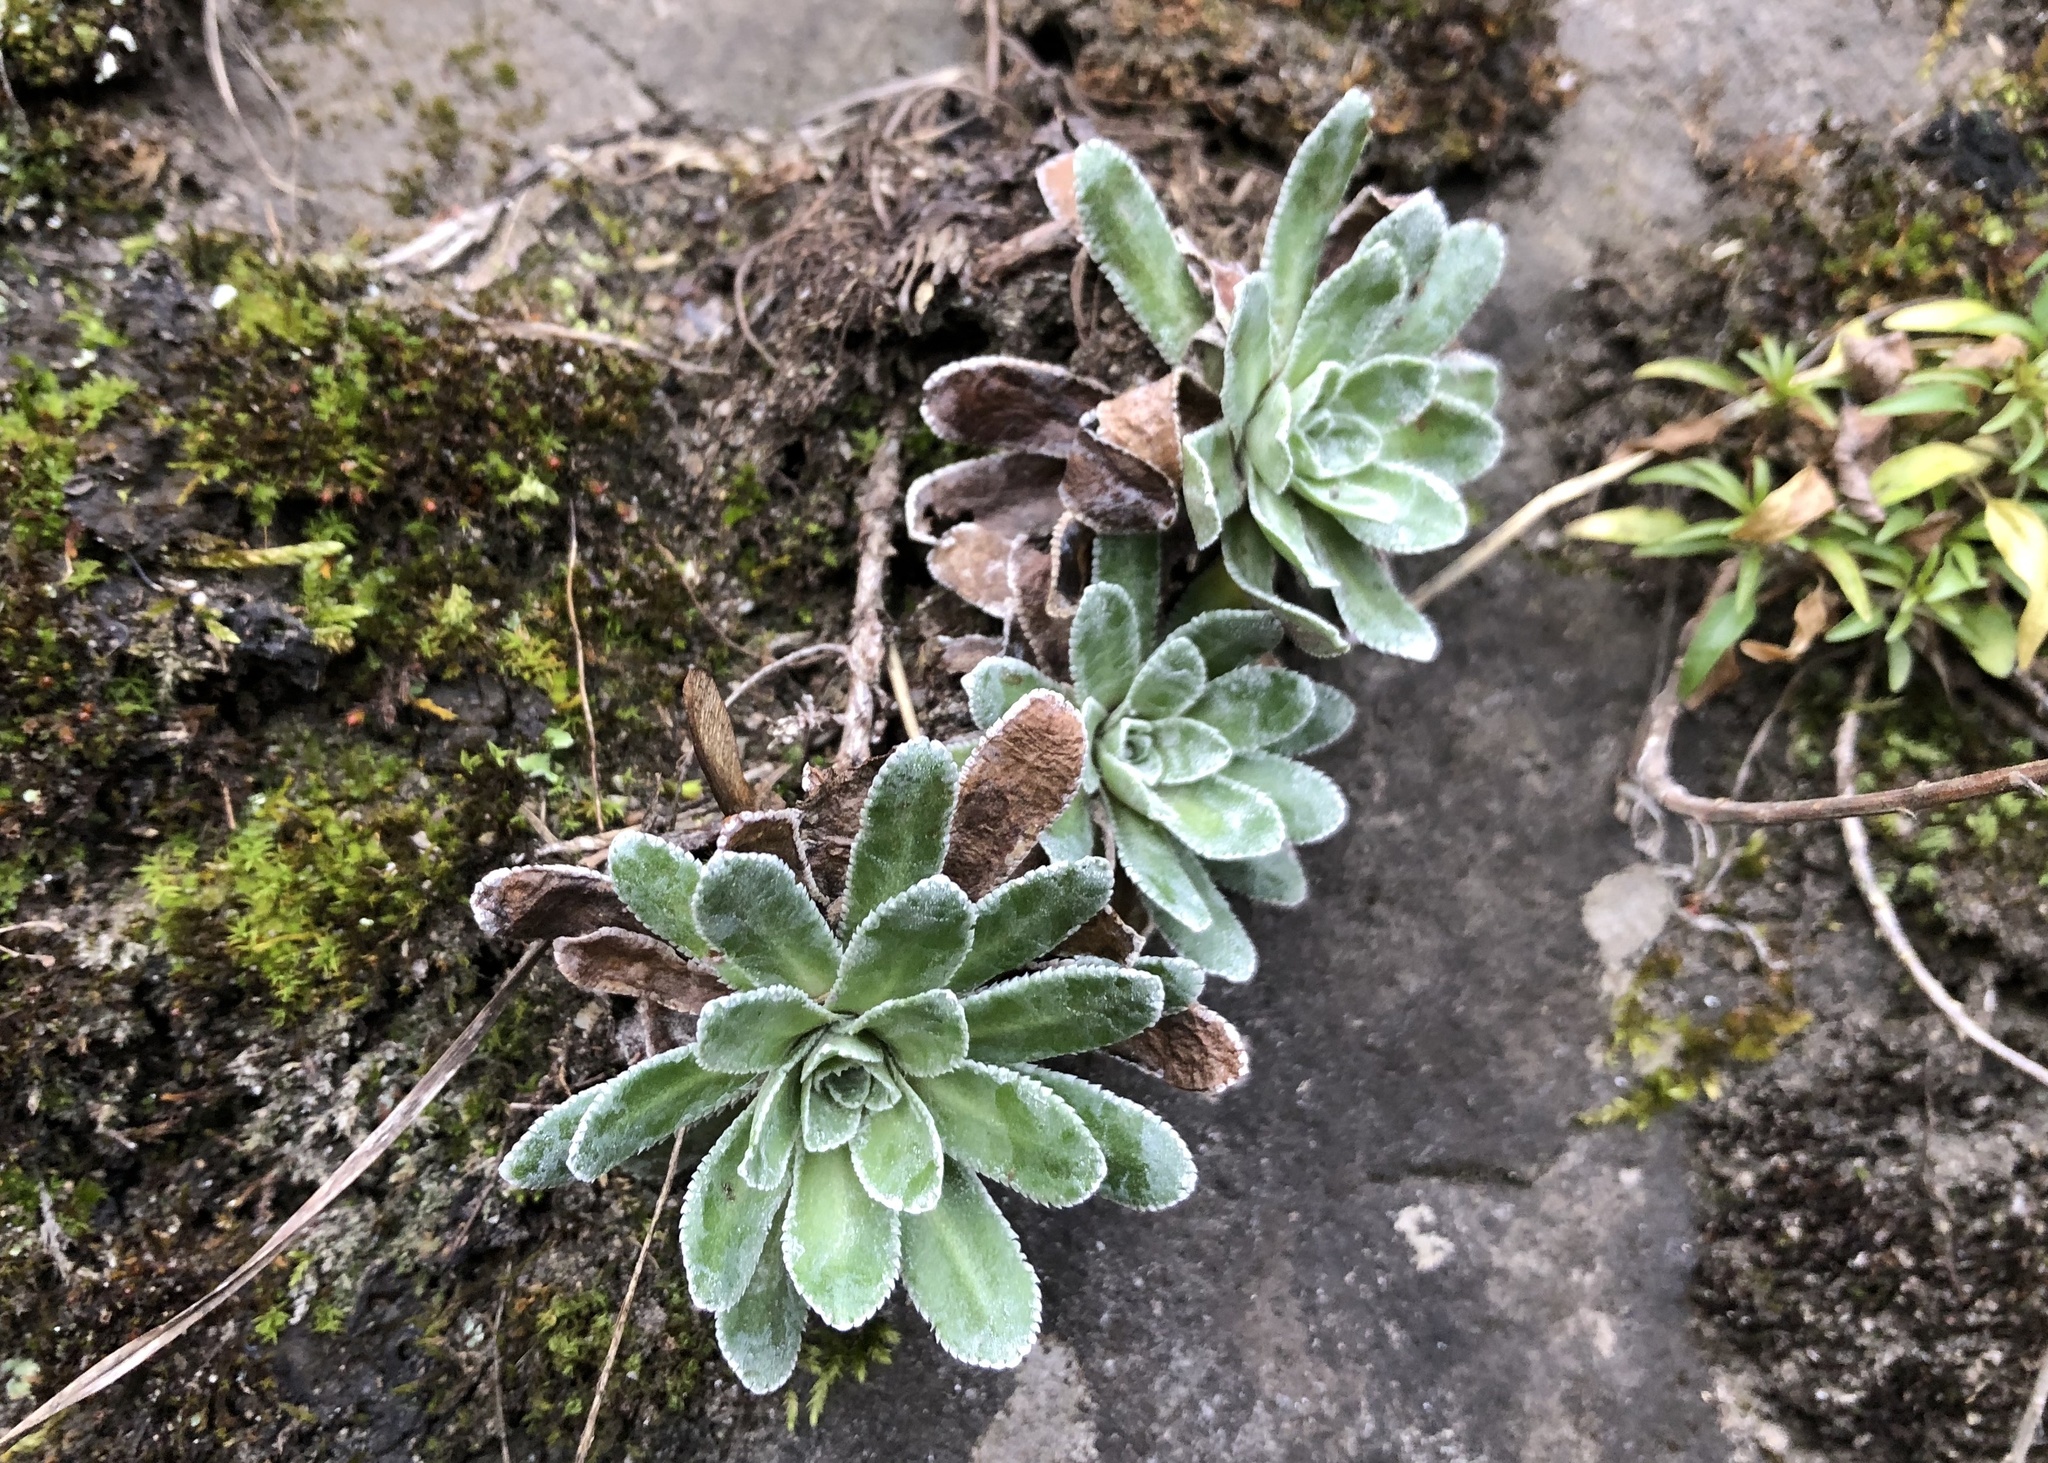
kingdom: Plantae
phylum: Tracheophyta
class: Magnoliopsida
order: Saxifragales
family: Saxifragaceae
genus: Saxifraga
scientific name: Saxifraga paniculata
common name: Livelong saxifrage
